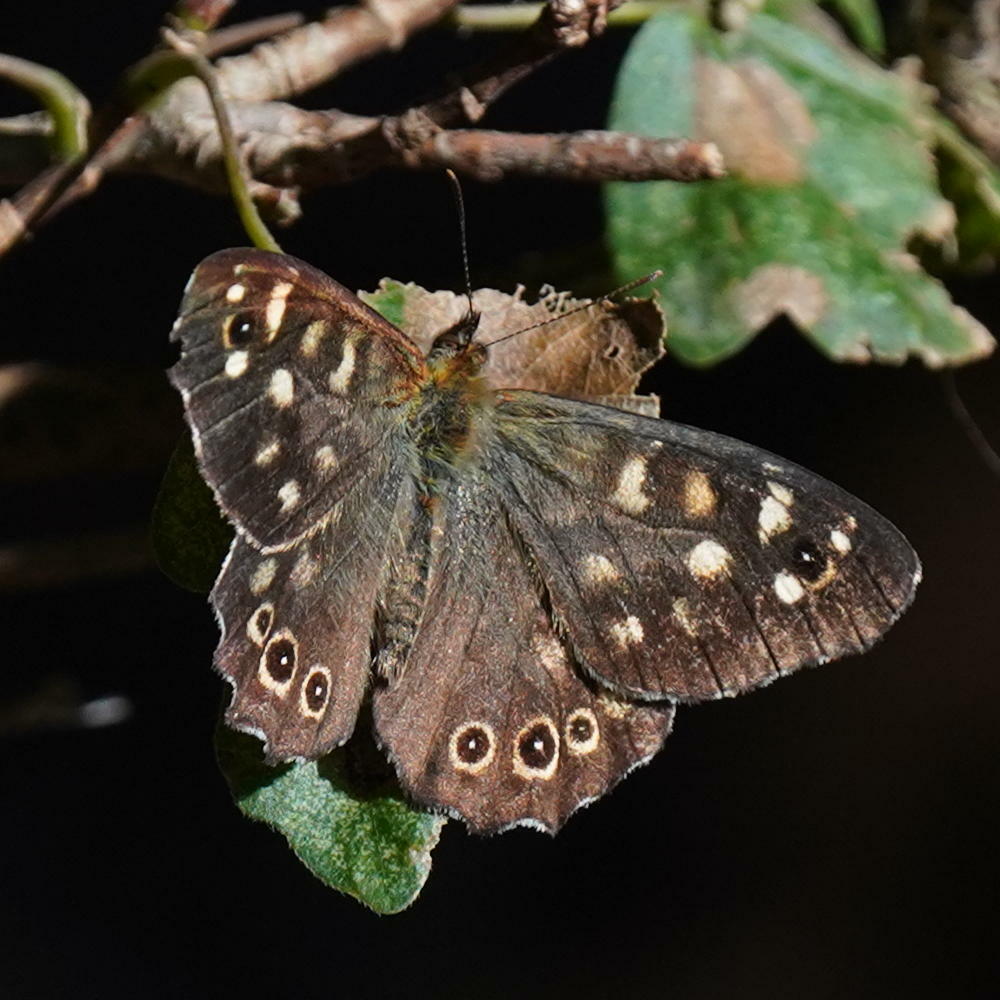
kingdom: Animalia
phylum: Arthropoda
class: Insecta
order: Lepidoptera
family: Nymphalidae
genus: Pararge
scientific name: Pararge aegeria
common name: Speckled wood
